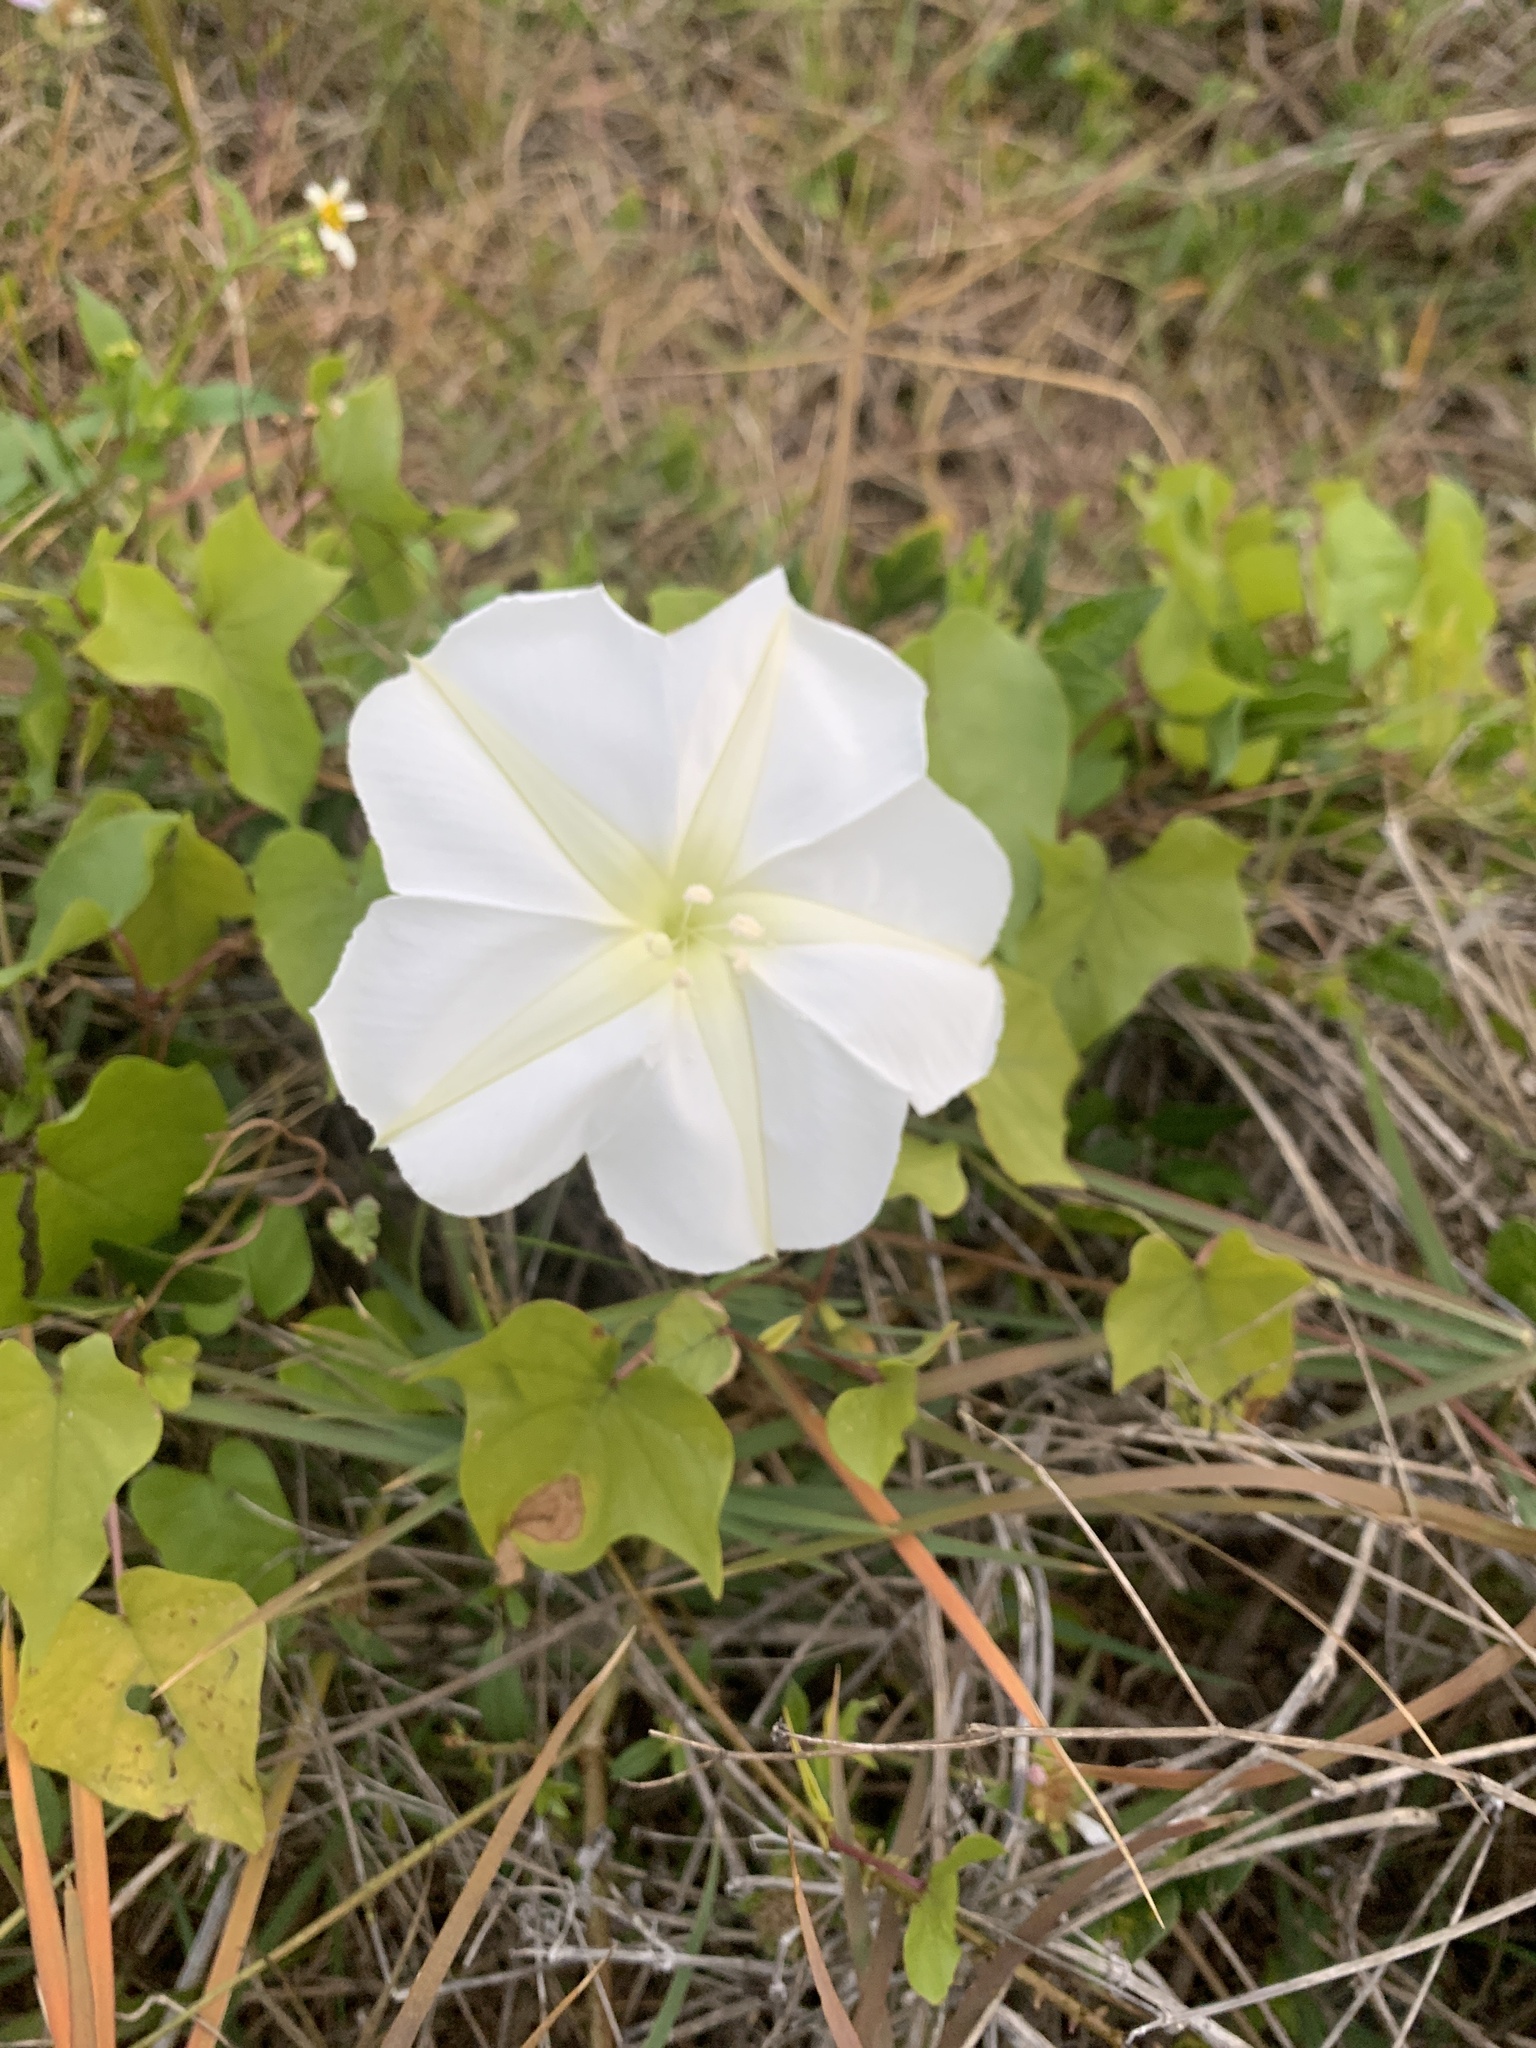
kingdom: Plantae
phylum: Tracheophyta
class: Magnoliopsida
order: Solanales
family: Convolvulaceae
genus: Ipomoea
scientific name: Ipomoea alba
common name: Moonflower
